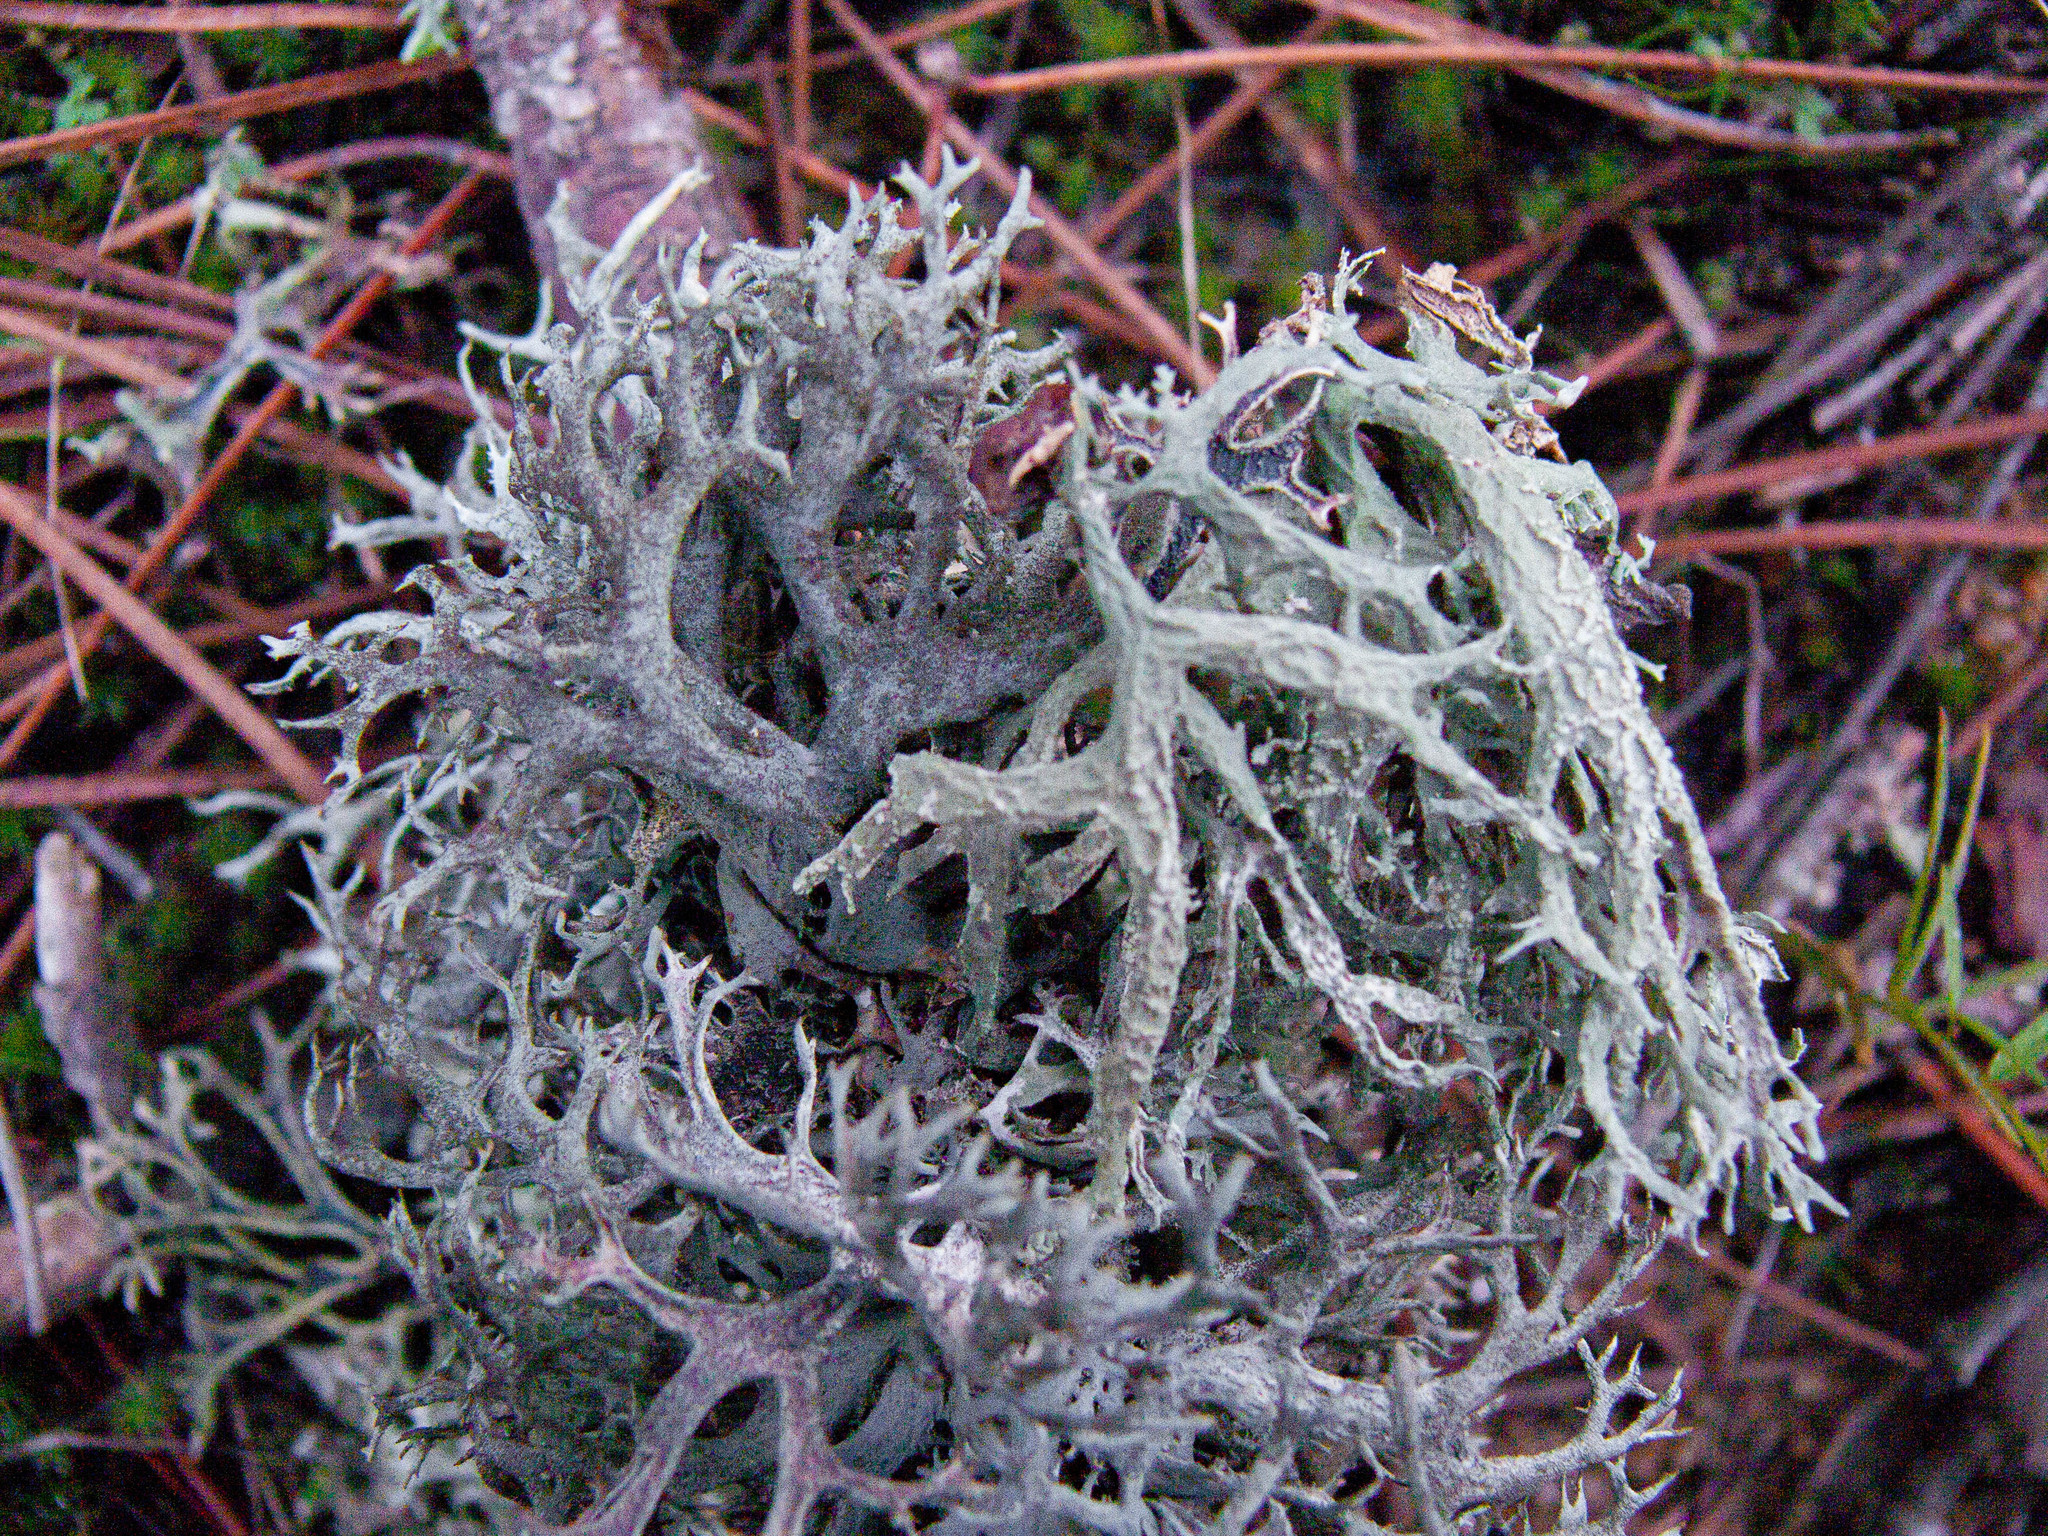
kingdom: Fungi
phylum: Ascomycota
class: Lecanoromycetes
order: Lecanorales
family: Parmeliaceae
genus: Pseudevernia
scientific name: Pseudevernia furfuracea
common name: Tree moss
